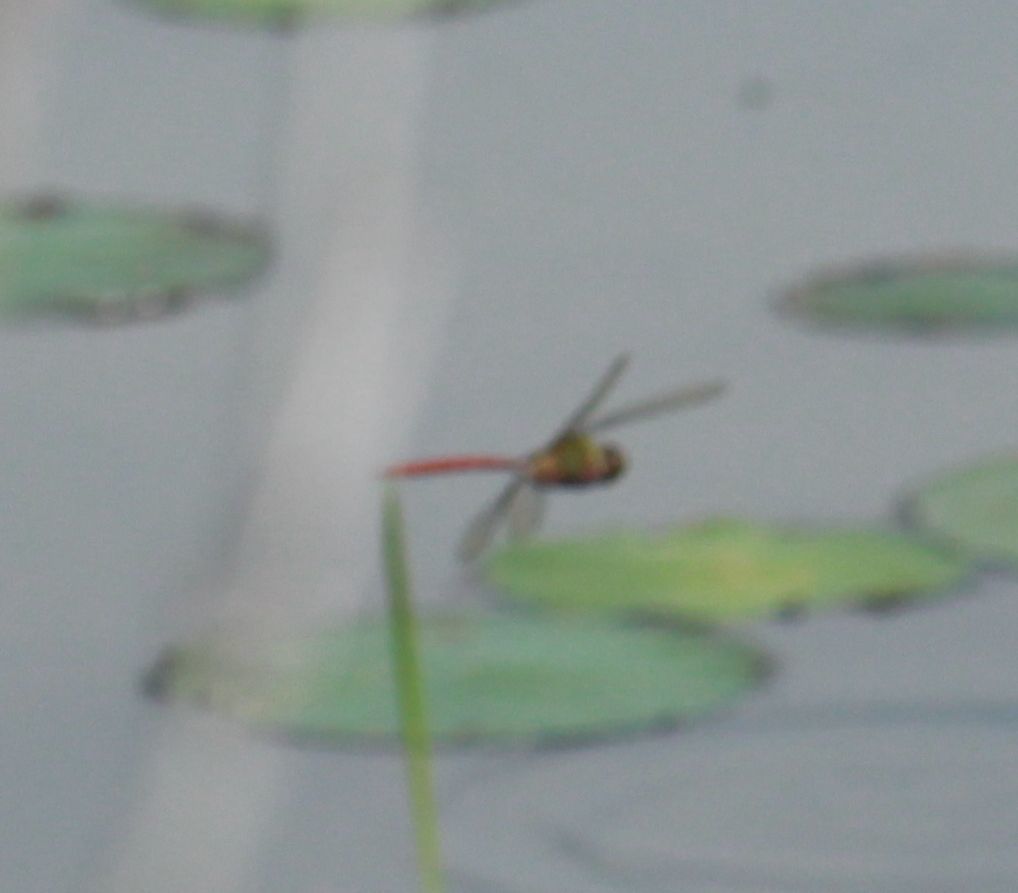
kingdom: Animalia
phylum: Arthropoda
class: Insecta
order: Odonata
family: Aeshnidae
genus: Anax
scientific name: Anax longipes
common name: Comet darner
